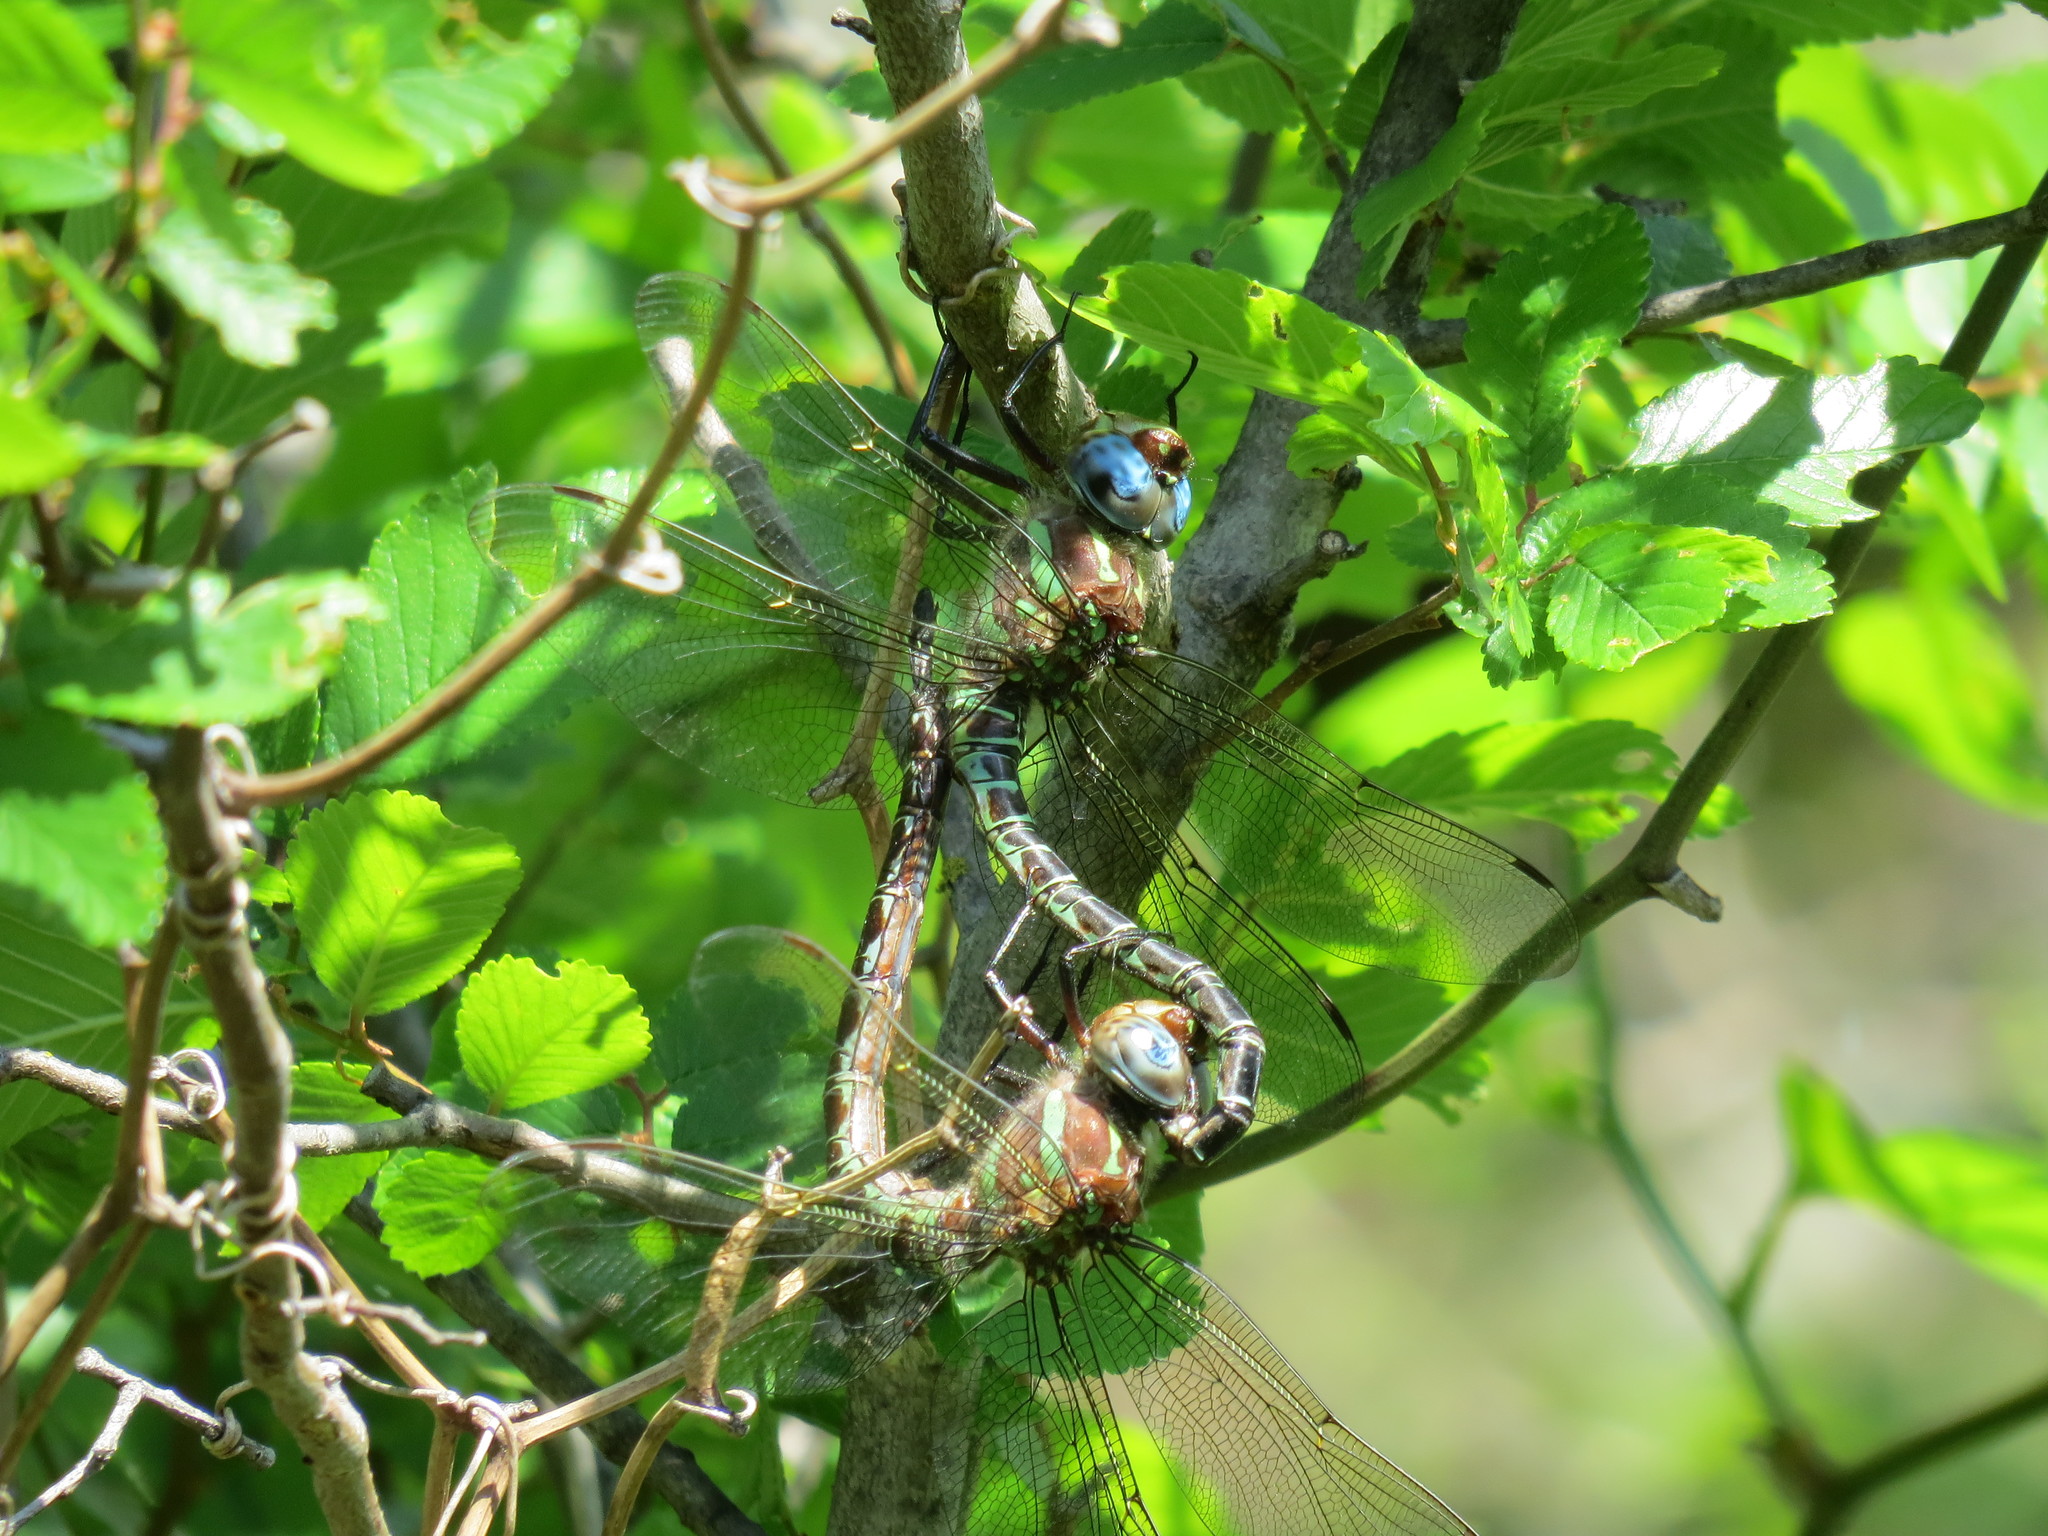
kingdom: Animalia
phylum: Arthropoda
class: Insecta
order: Odonata
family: Aeshnidae
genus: Epiaeschna
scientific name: Epiaeschna heros
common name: Swamp darner
